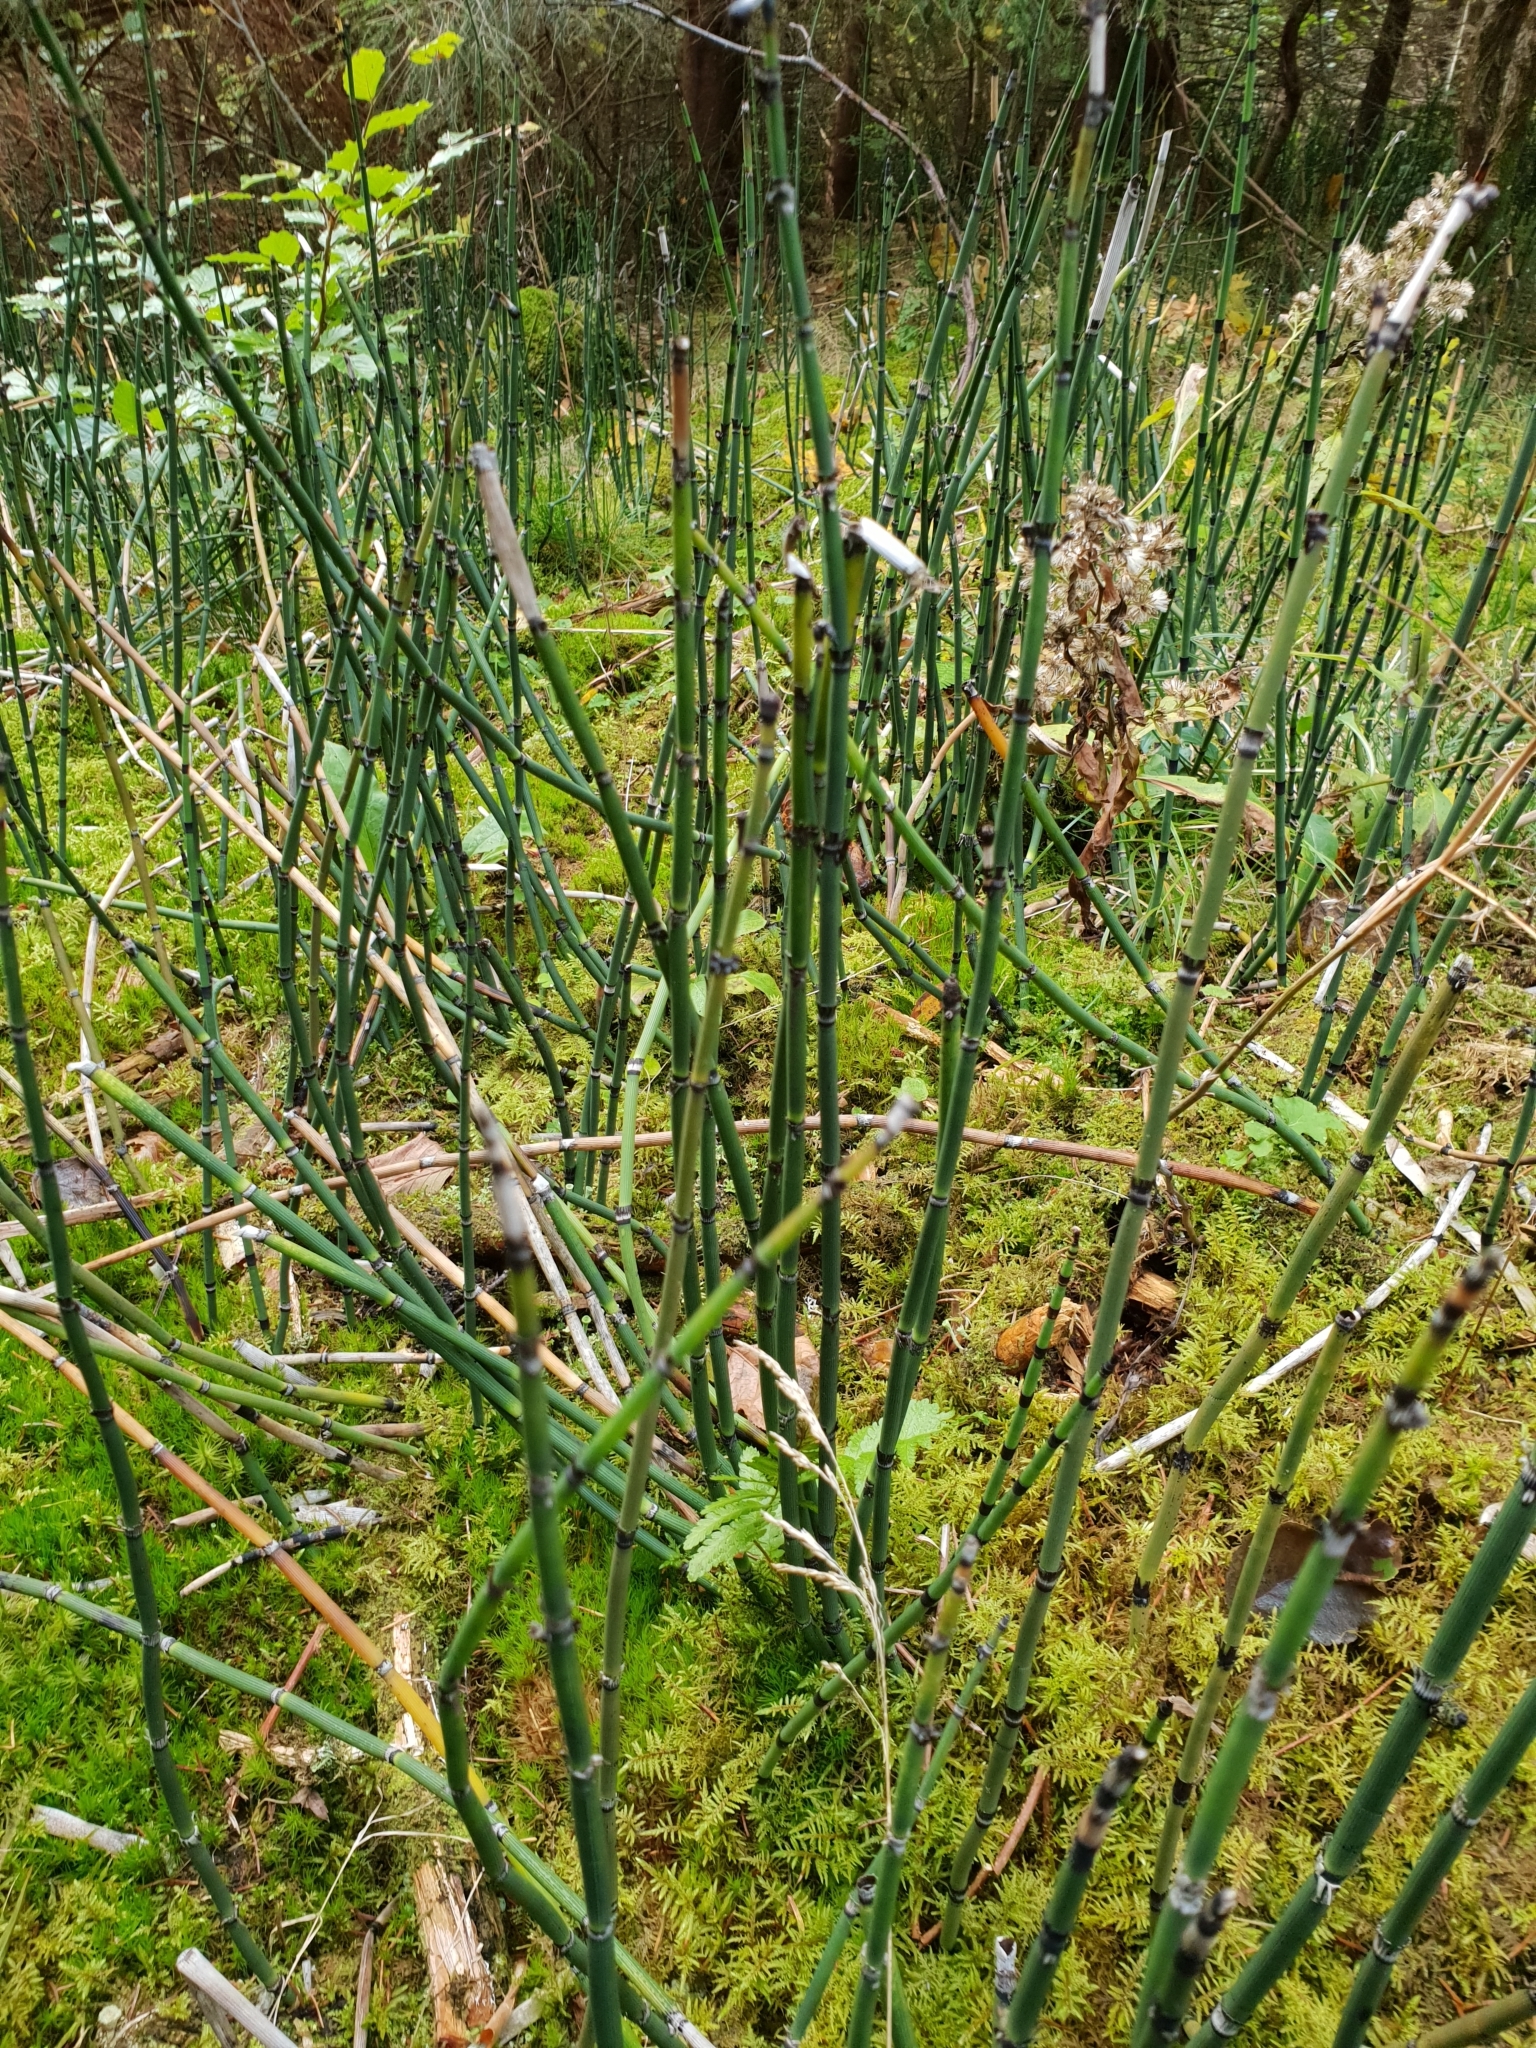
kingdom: Plantae
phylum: Tracheophyta
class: Polypodiopsida
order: Equisetales
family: Equisetaceae
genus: Equisetum
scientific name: Equisetum hyemale
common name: Rough horsetail
